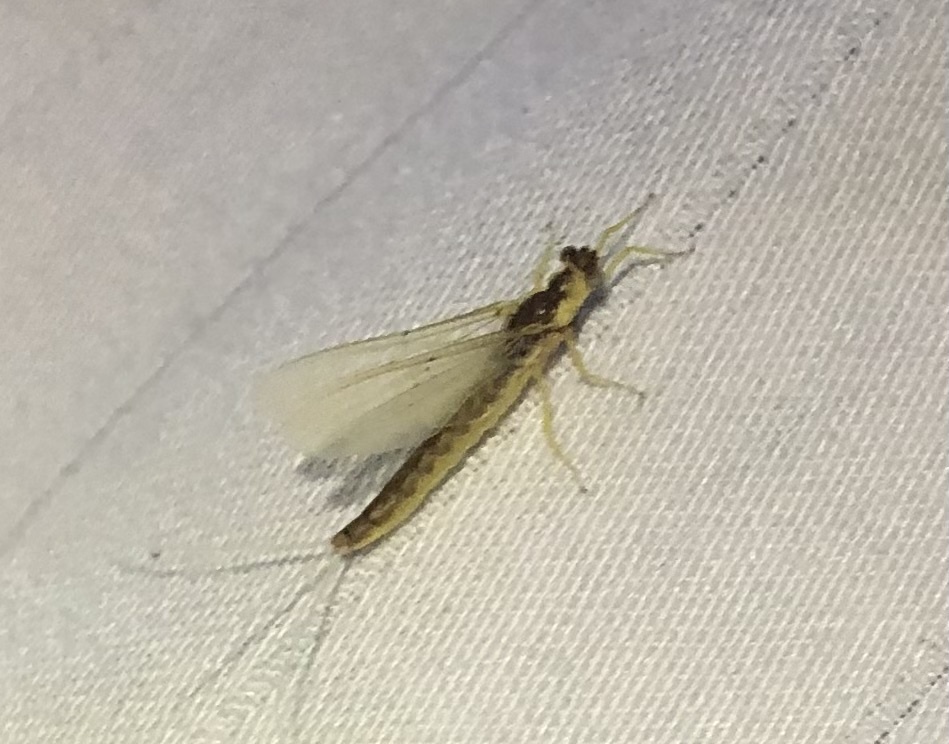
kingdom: Animalia
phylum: Arthropoda
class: Insecta
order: Ephemeroptera
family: Ephemeridae
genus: Pentagenia
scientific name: Pentagenia vittigera
